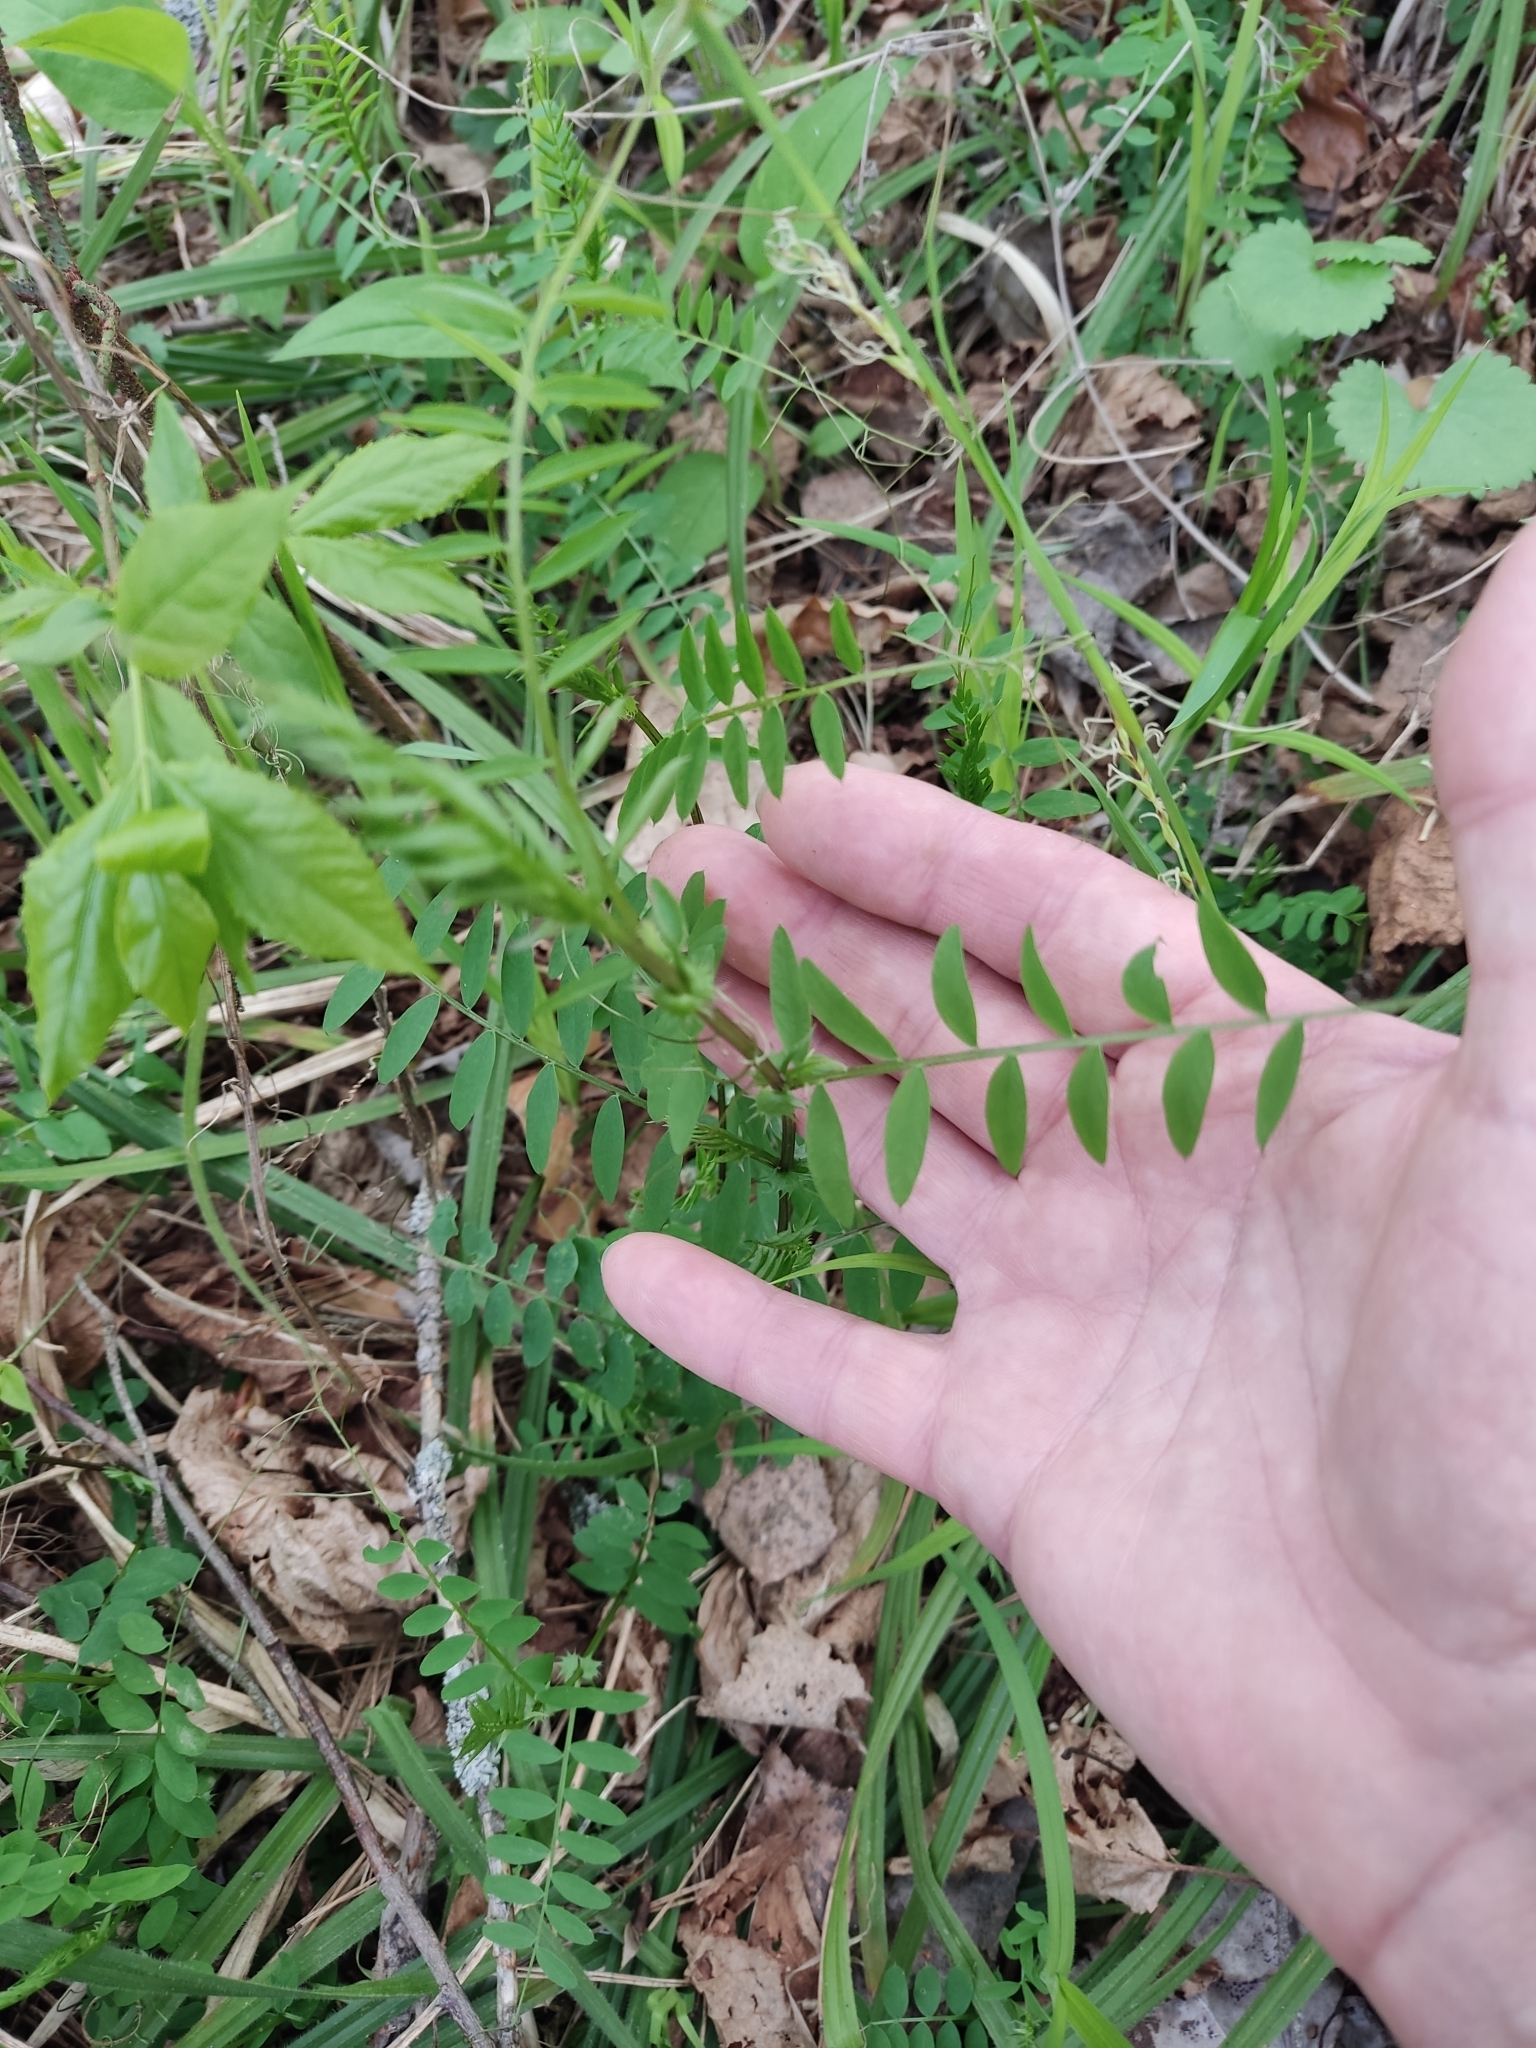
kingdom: Plantae
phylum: Tracheophyta
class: Magnoliopsida
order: Fabales
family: Fabaceae
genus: Vicia
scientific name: Vicia sylvatica
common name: Wood vetch
